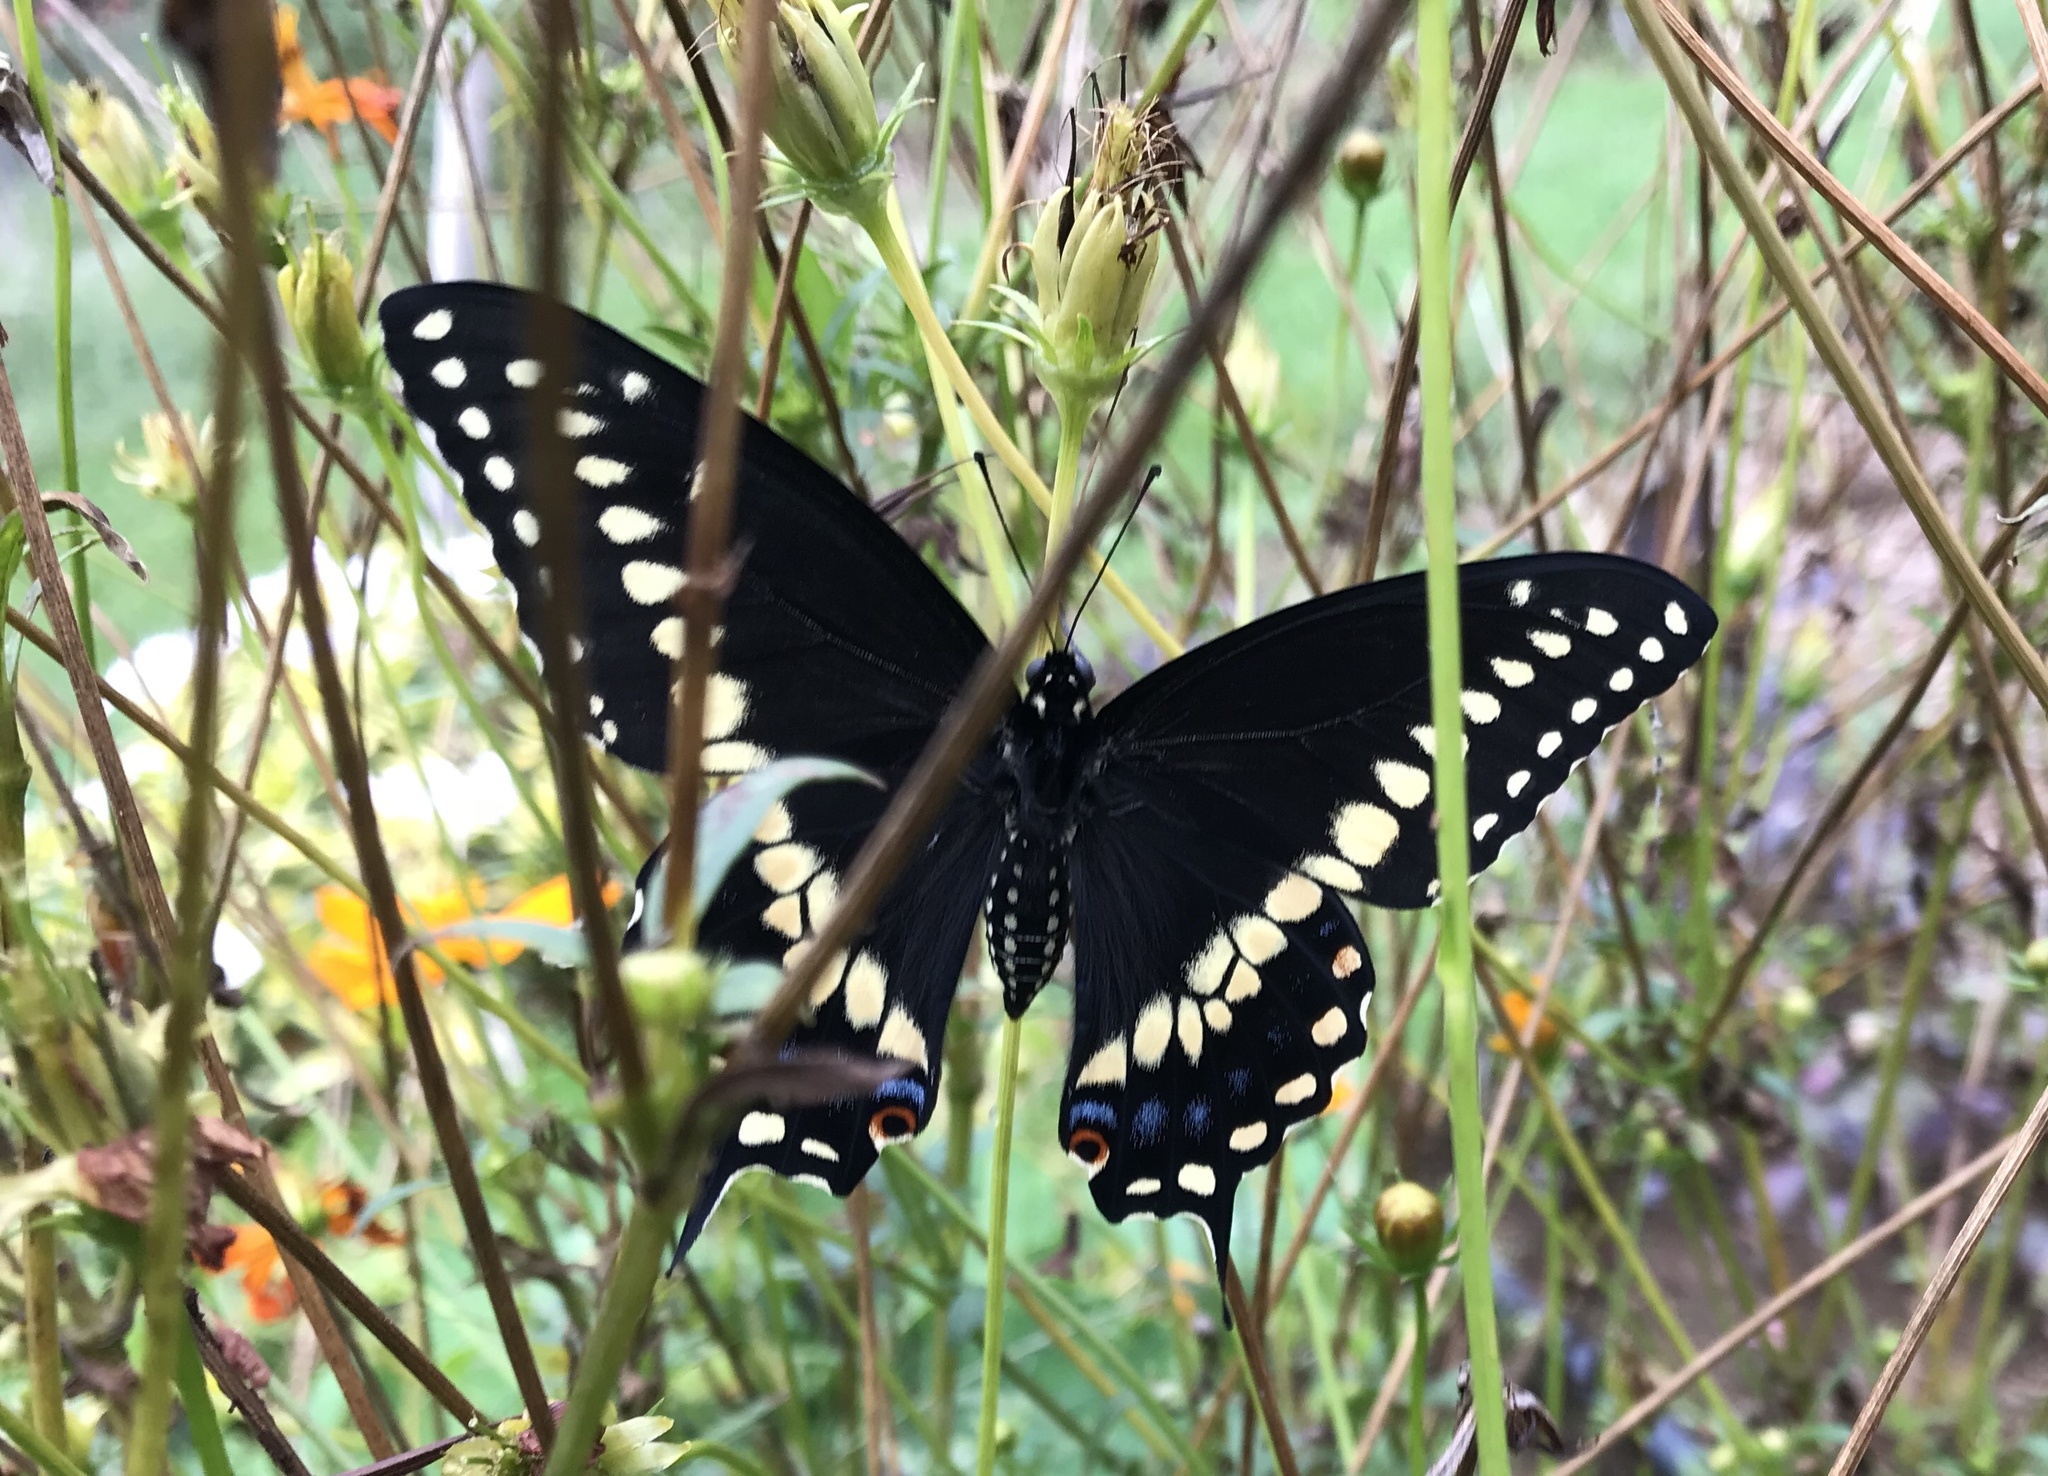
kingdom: Animalia
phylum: Arthropoda
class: Insecta
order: Lepidoptera
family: Papilionidae
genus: Papilio
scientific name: Papilio polyxenes
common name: Black swallowtail
